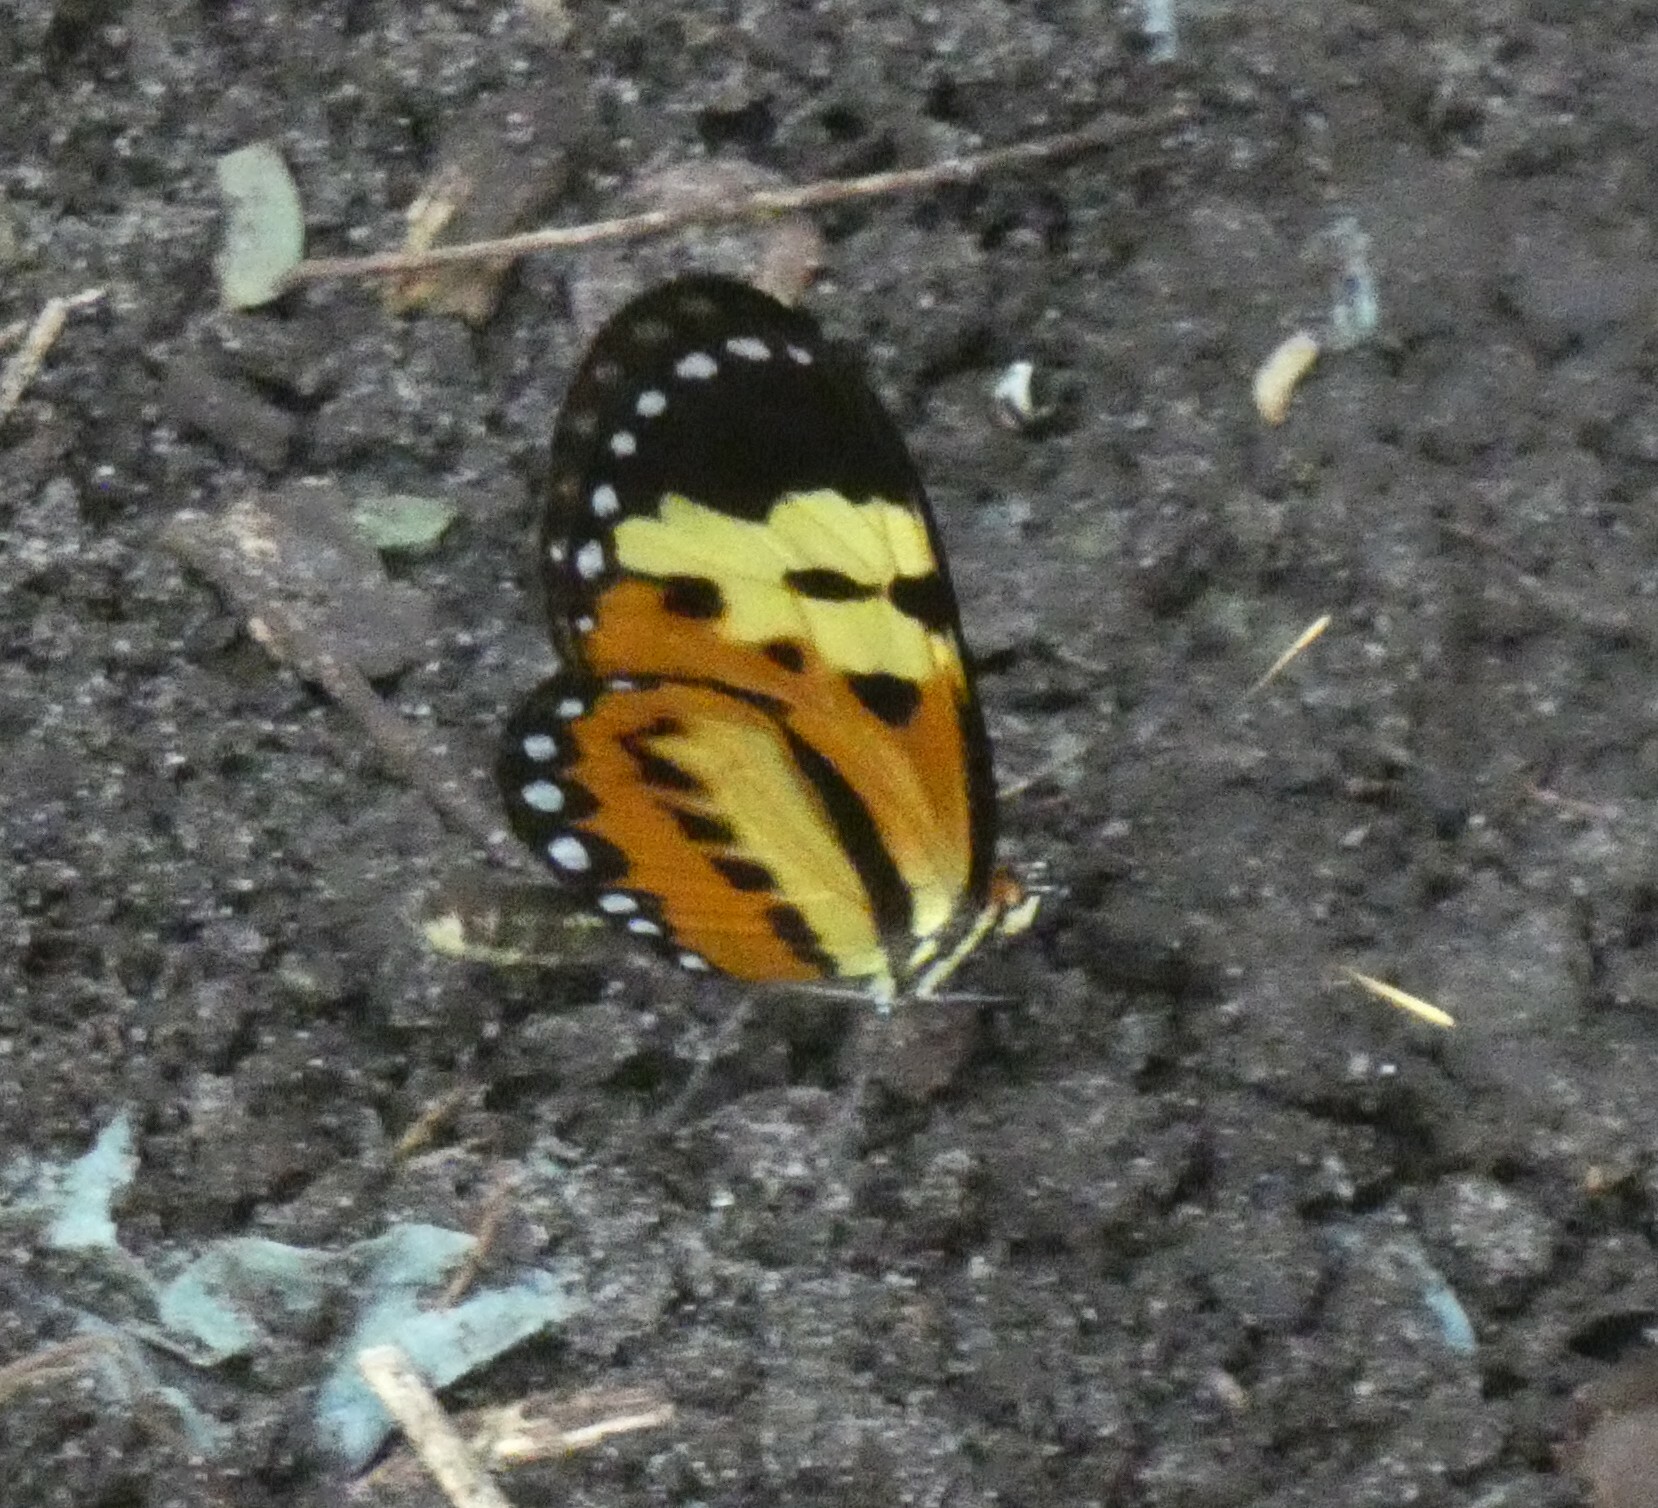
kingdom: Animalia
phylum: Arthropoda
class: Insecta
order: Lepidoptera
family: Nymphalidae
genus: Mechanitis
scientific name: Mechanitis polymnia
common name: Disturbed tigerwing
